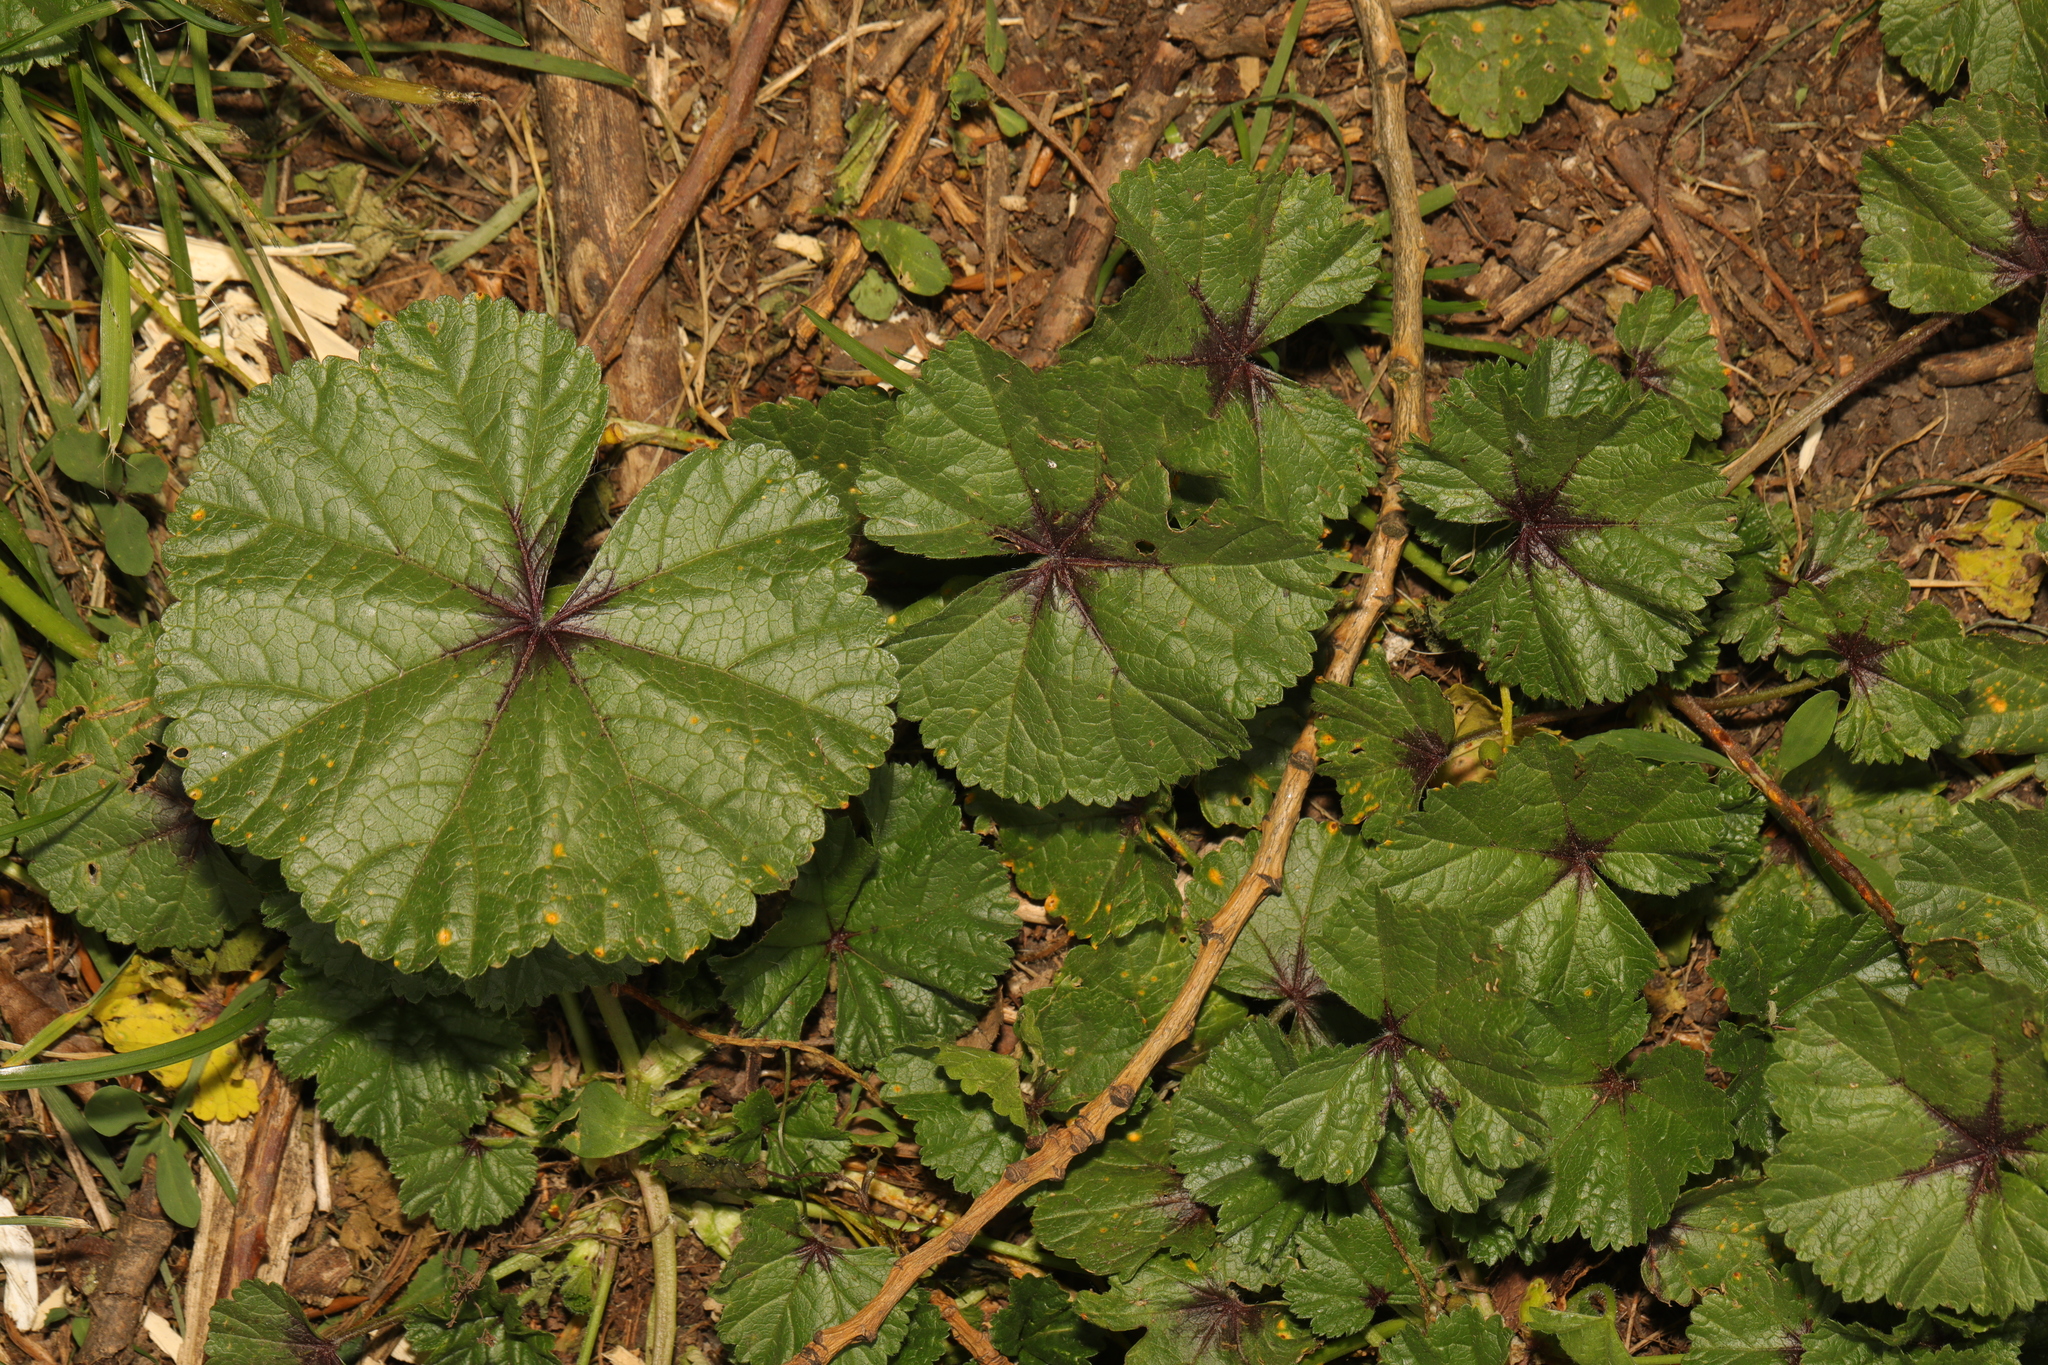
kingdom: Plantae
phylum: Tracheophyta
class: Magnoliopsida
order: Malvales
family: Malvaceae
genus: Malva
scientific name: Malva sylvestris
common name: Common mallow
